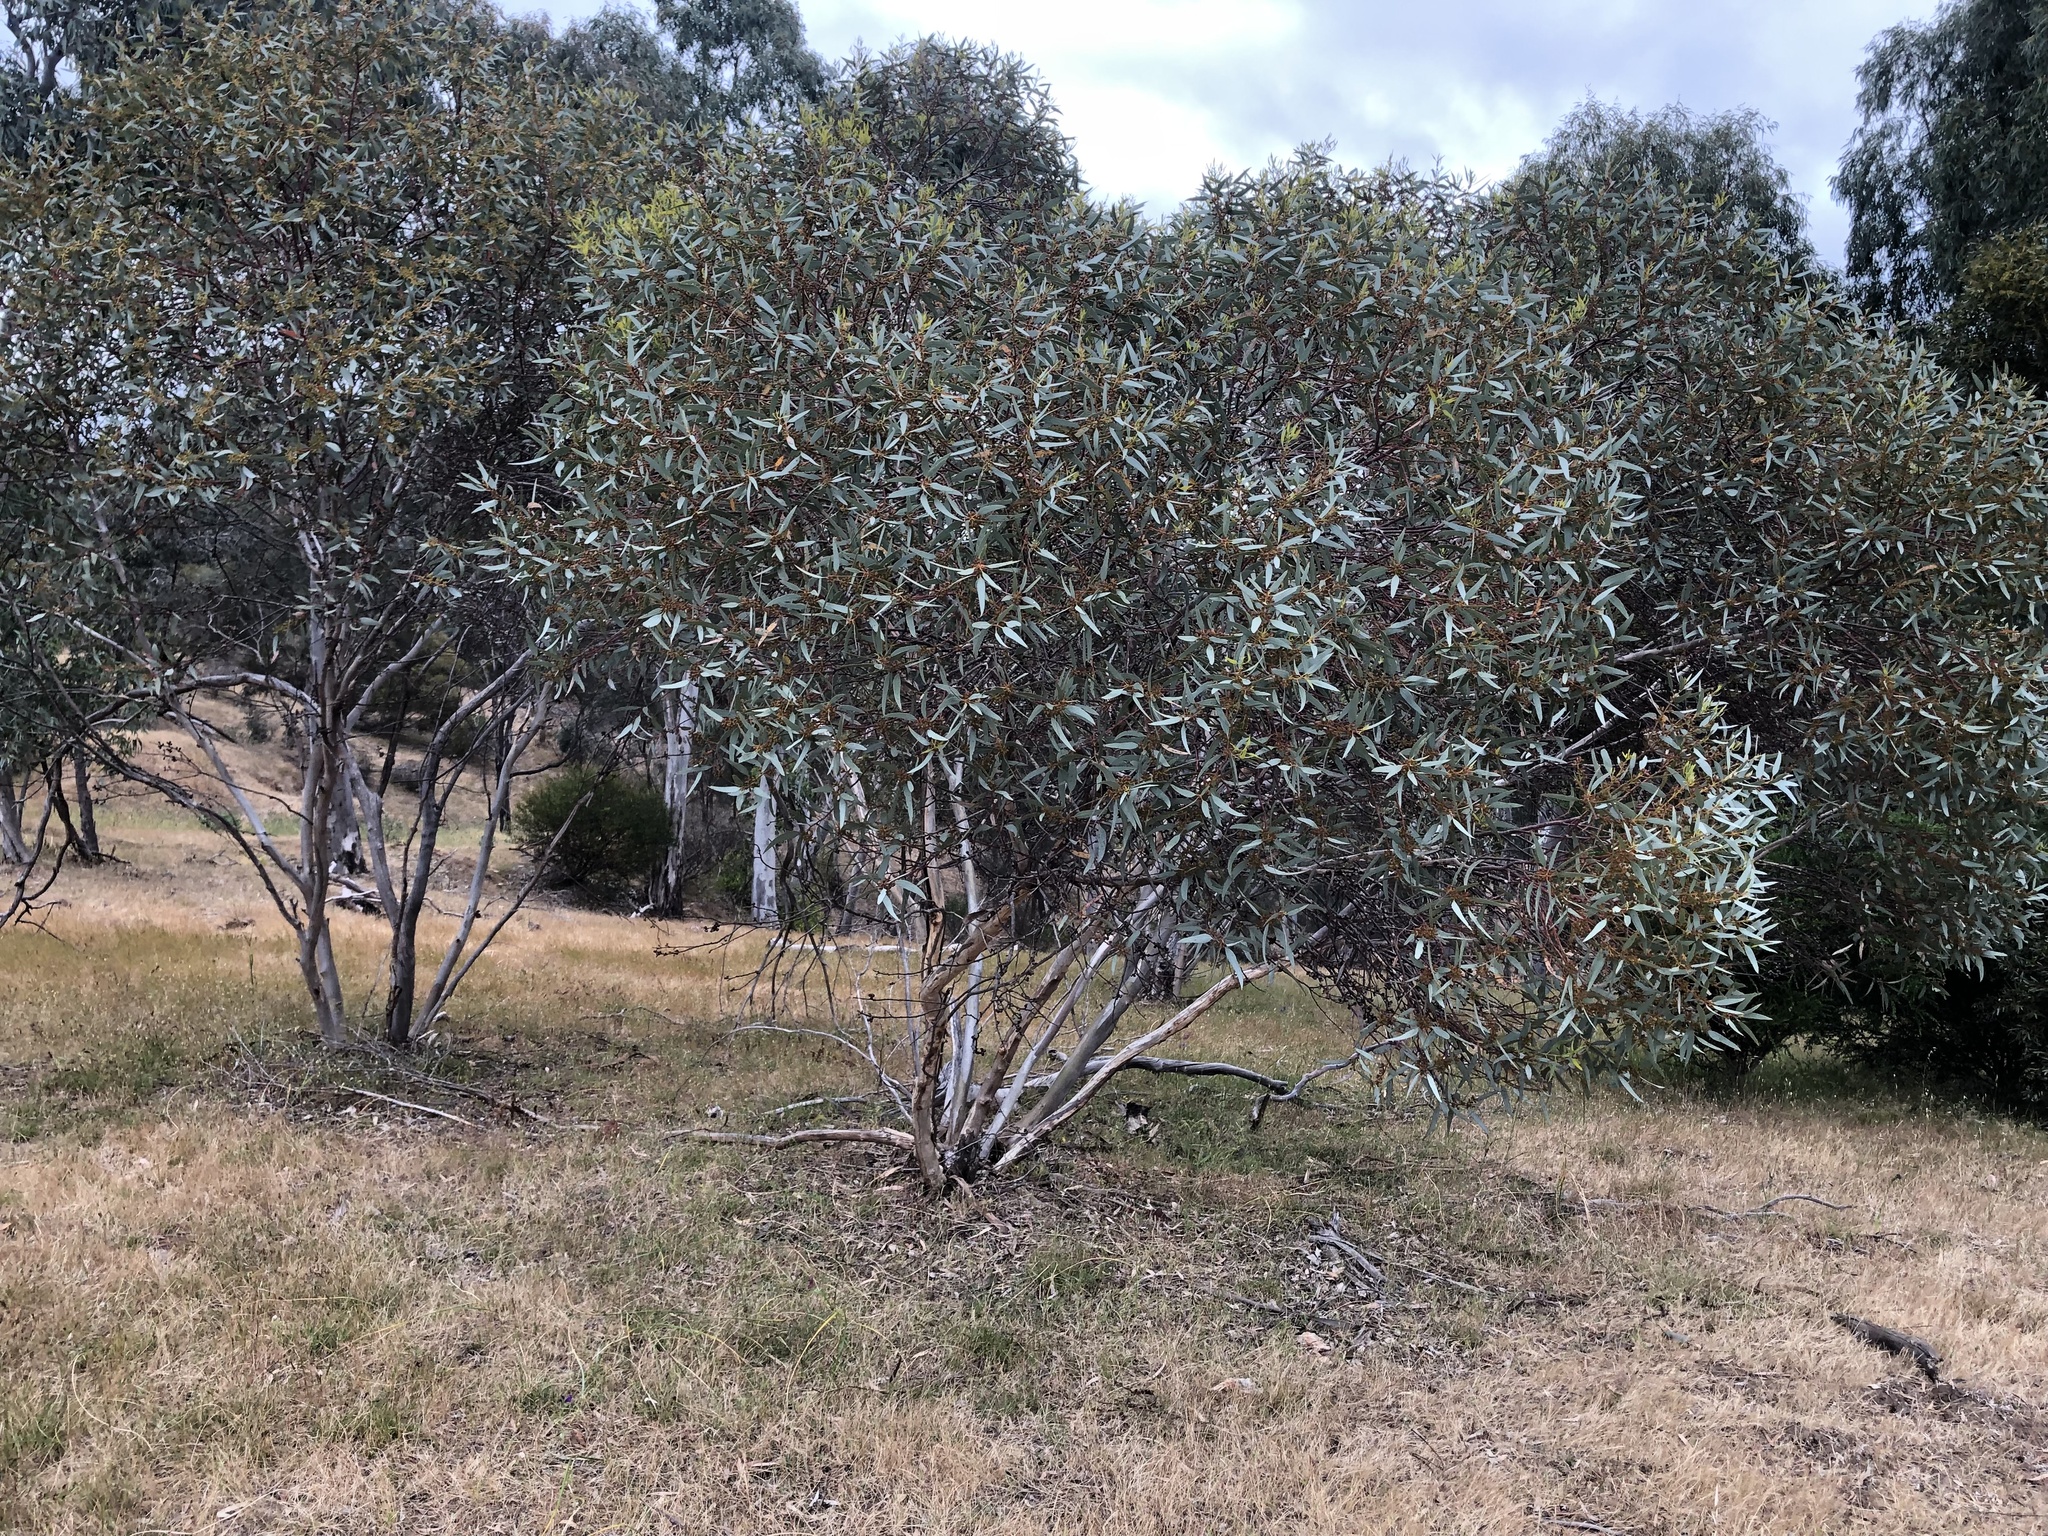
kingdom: Plantae
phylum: Tracheophyta
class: Magnoliopsida
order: Myrtales
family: Myrtaceae
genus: Eucalyptus
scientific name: Eucalyptus dumosa
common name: Dumosa mallee
